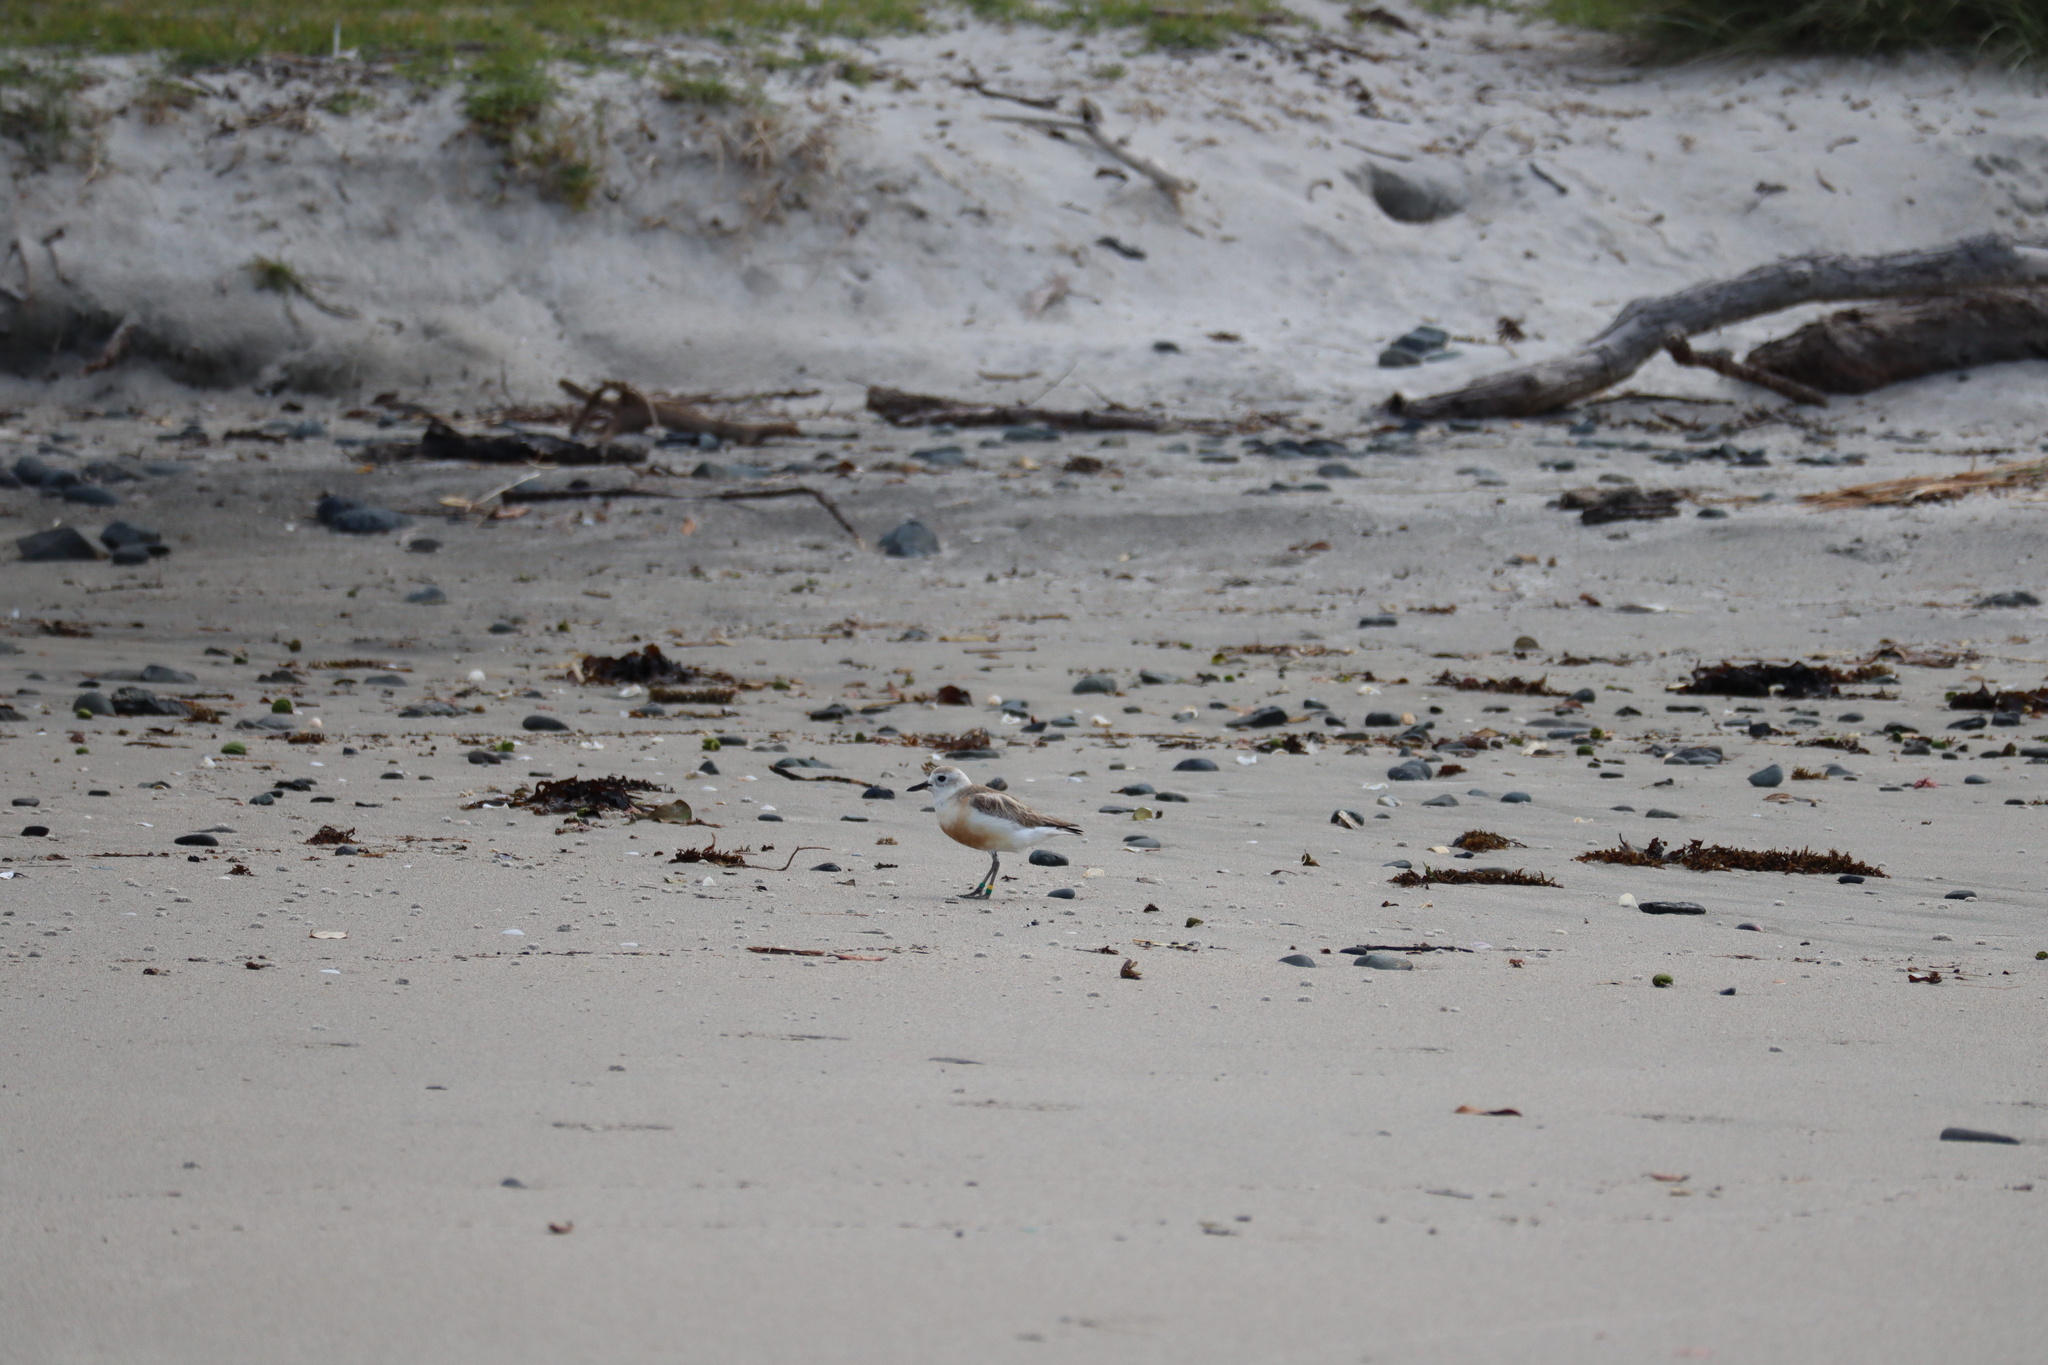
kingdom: Animalia
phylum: Chordata
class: Aves
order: Charadriiformes
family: Charadriidae
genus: Anarhynchus
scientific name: Anarhynchus
